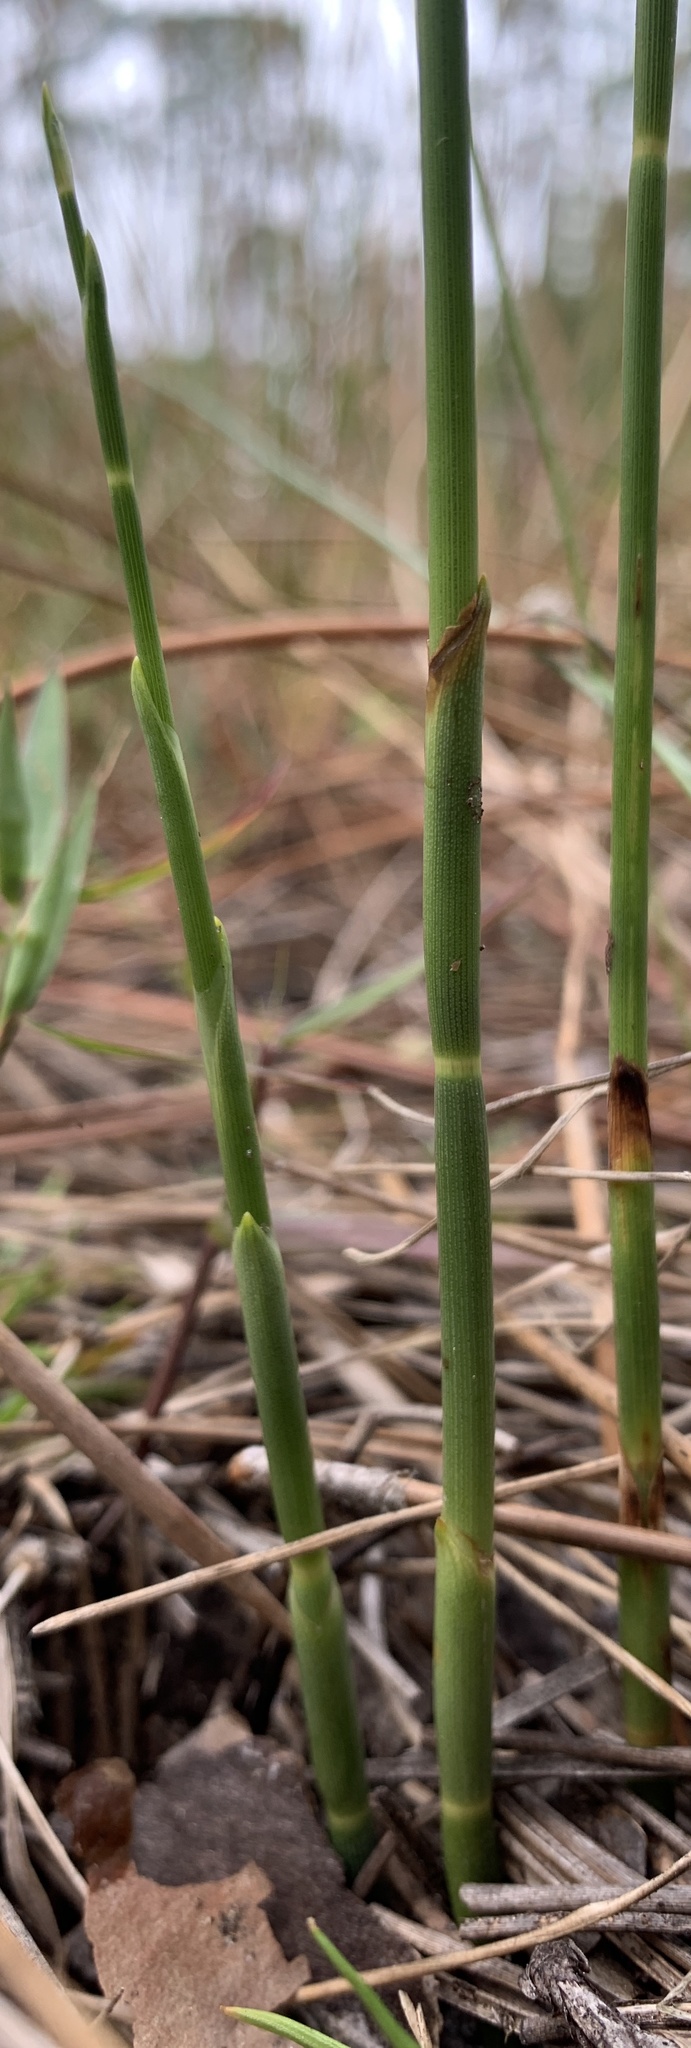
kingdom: Plantae
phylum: Tracheophyta
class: Liliopsida
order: Poales
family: Cyperaceae
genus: Fuirena
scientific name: Fuirena scirpoidea
